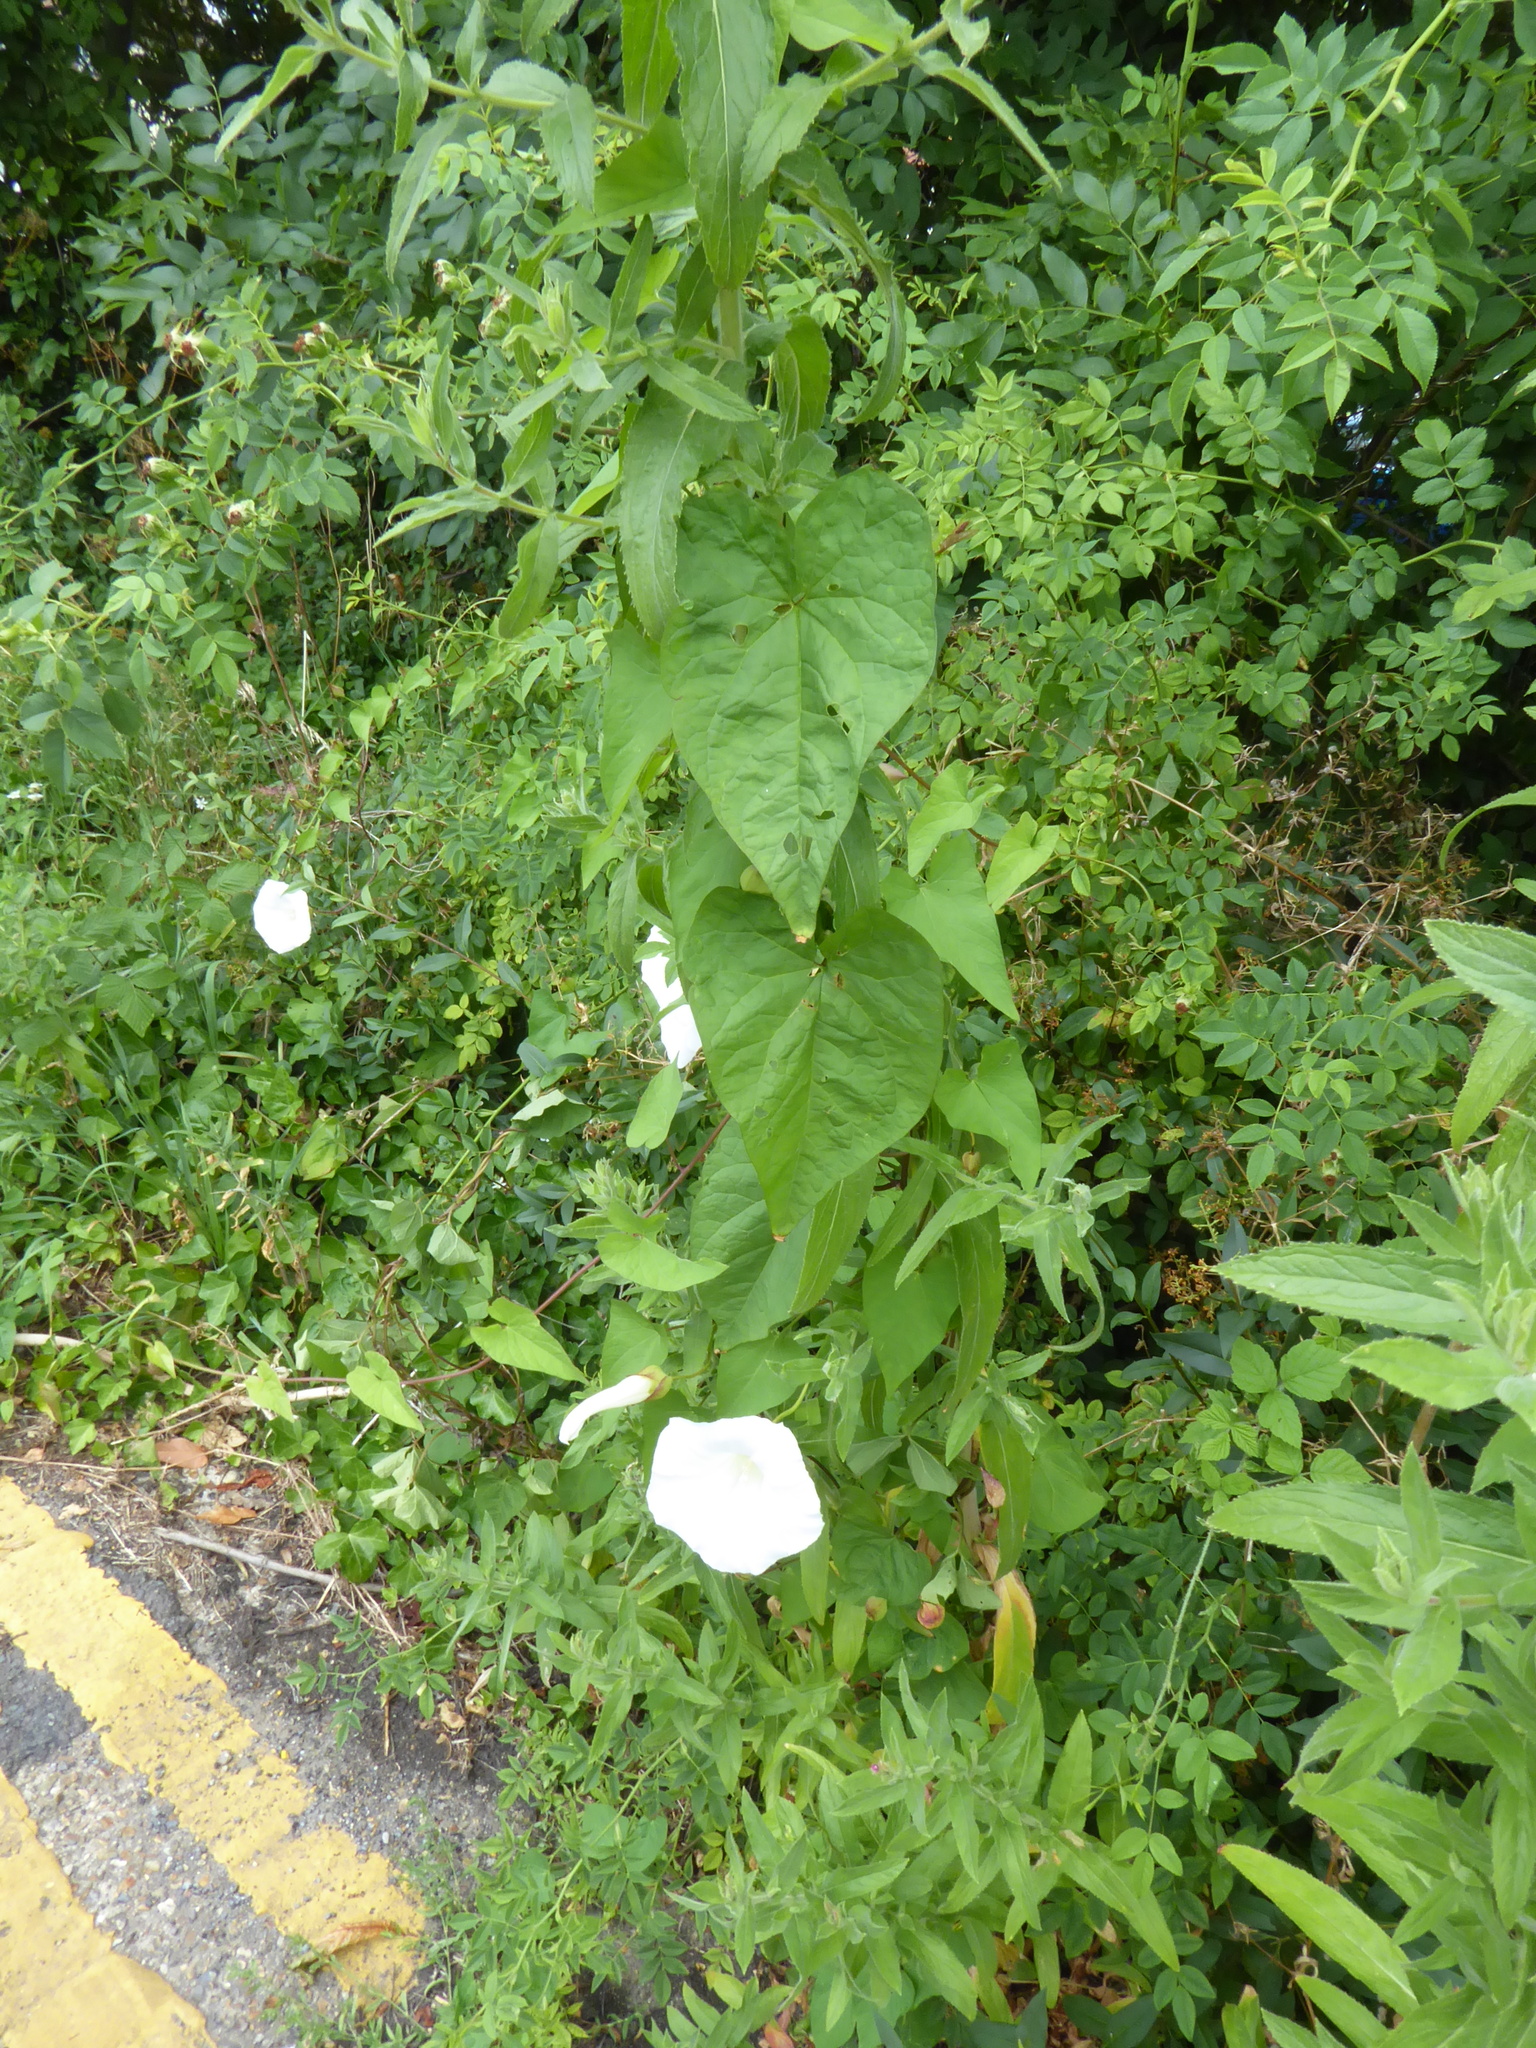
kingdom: Plantae
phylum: Tracheophyta
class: Magnoliopsida
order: Solanales
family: Convolvulaceae
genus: Calystegia
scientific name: Calystegia lucana
